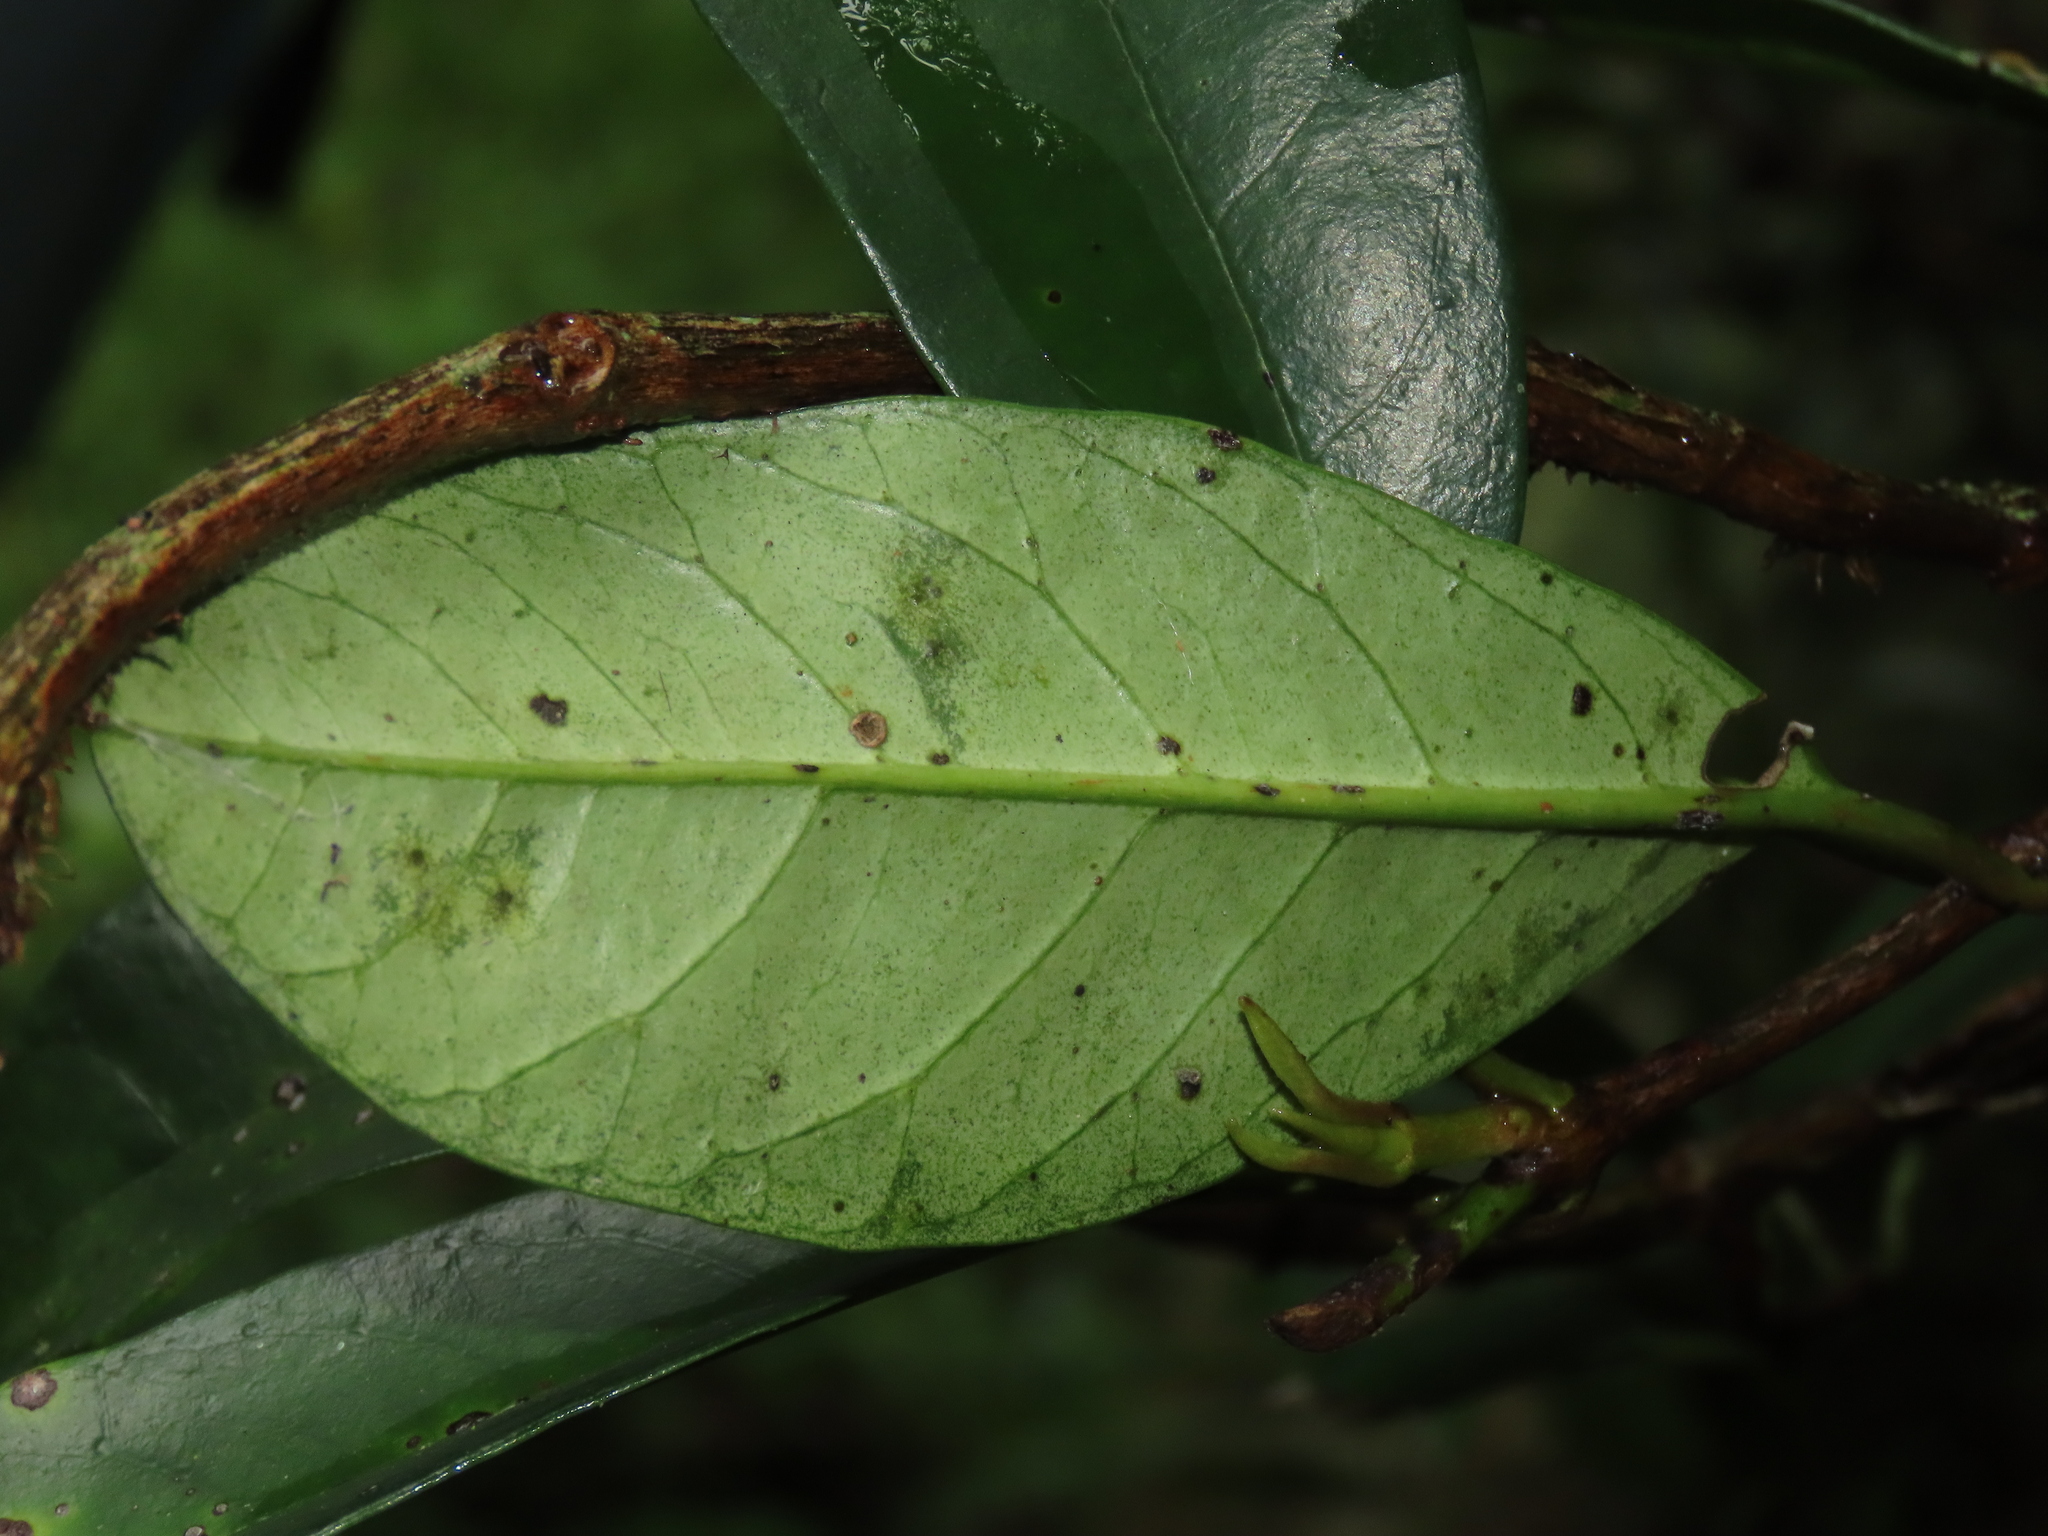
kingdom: Plantae
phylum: Tracheophyta
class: Magnoliopsida
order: Cornales
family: Hydrangeaceae
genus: Hydrangea
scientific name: Hydrangea viburnoides
